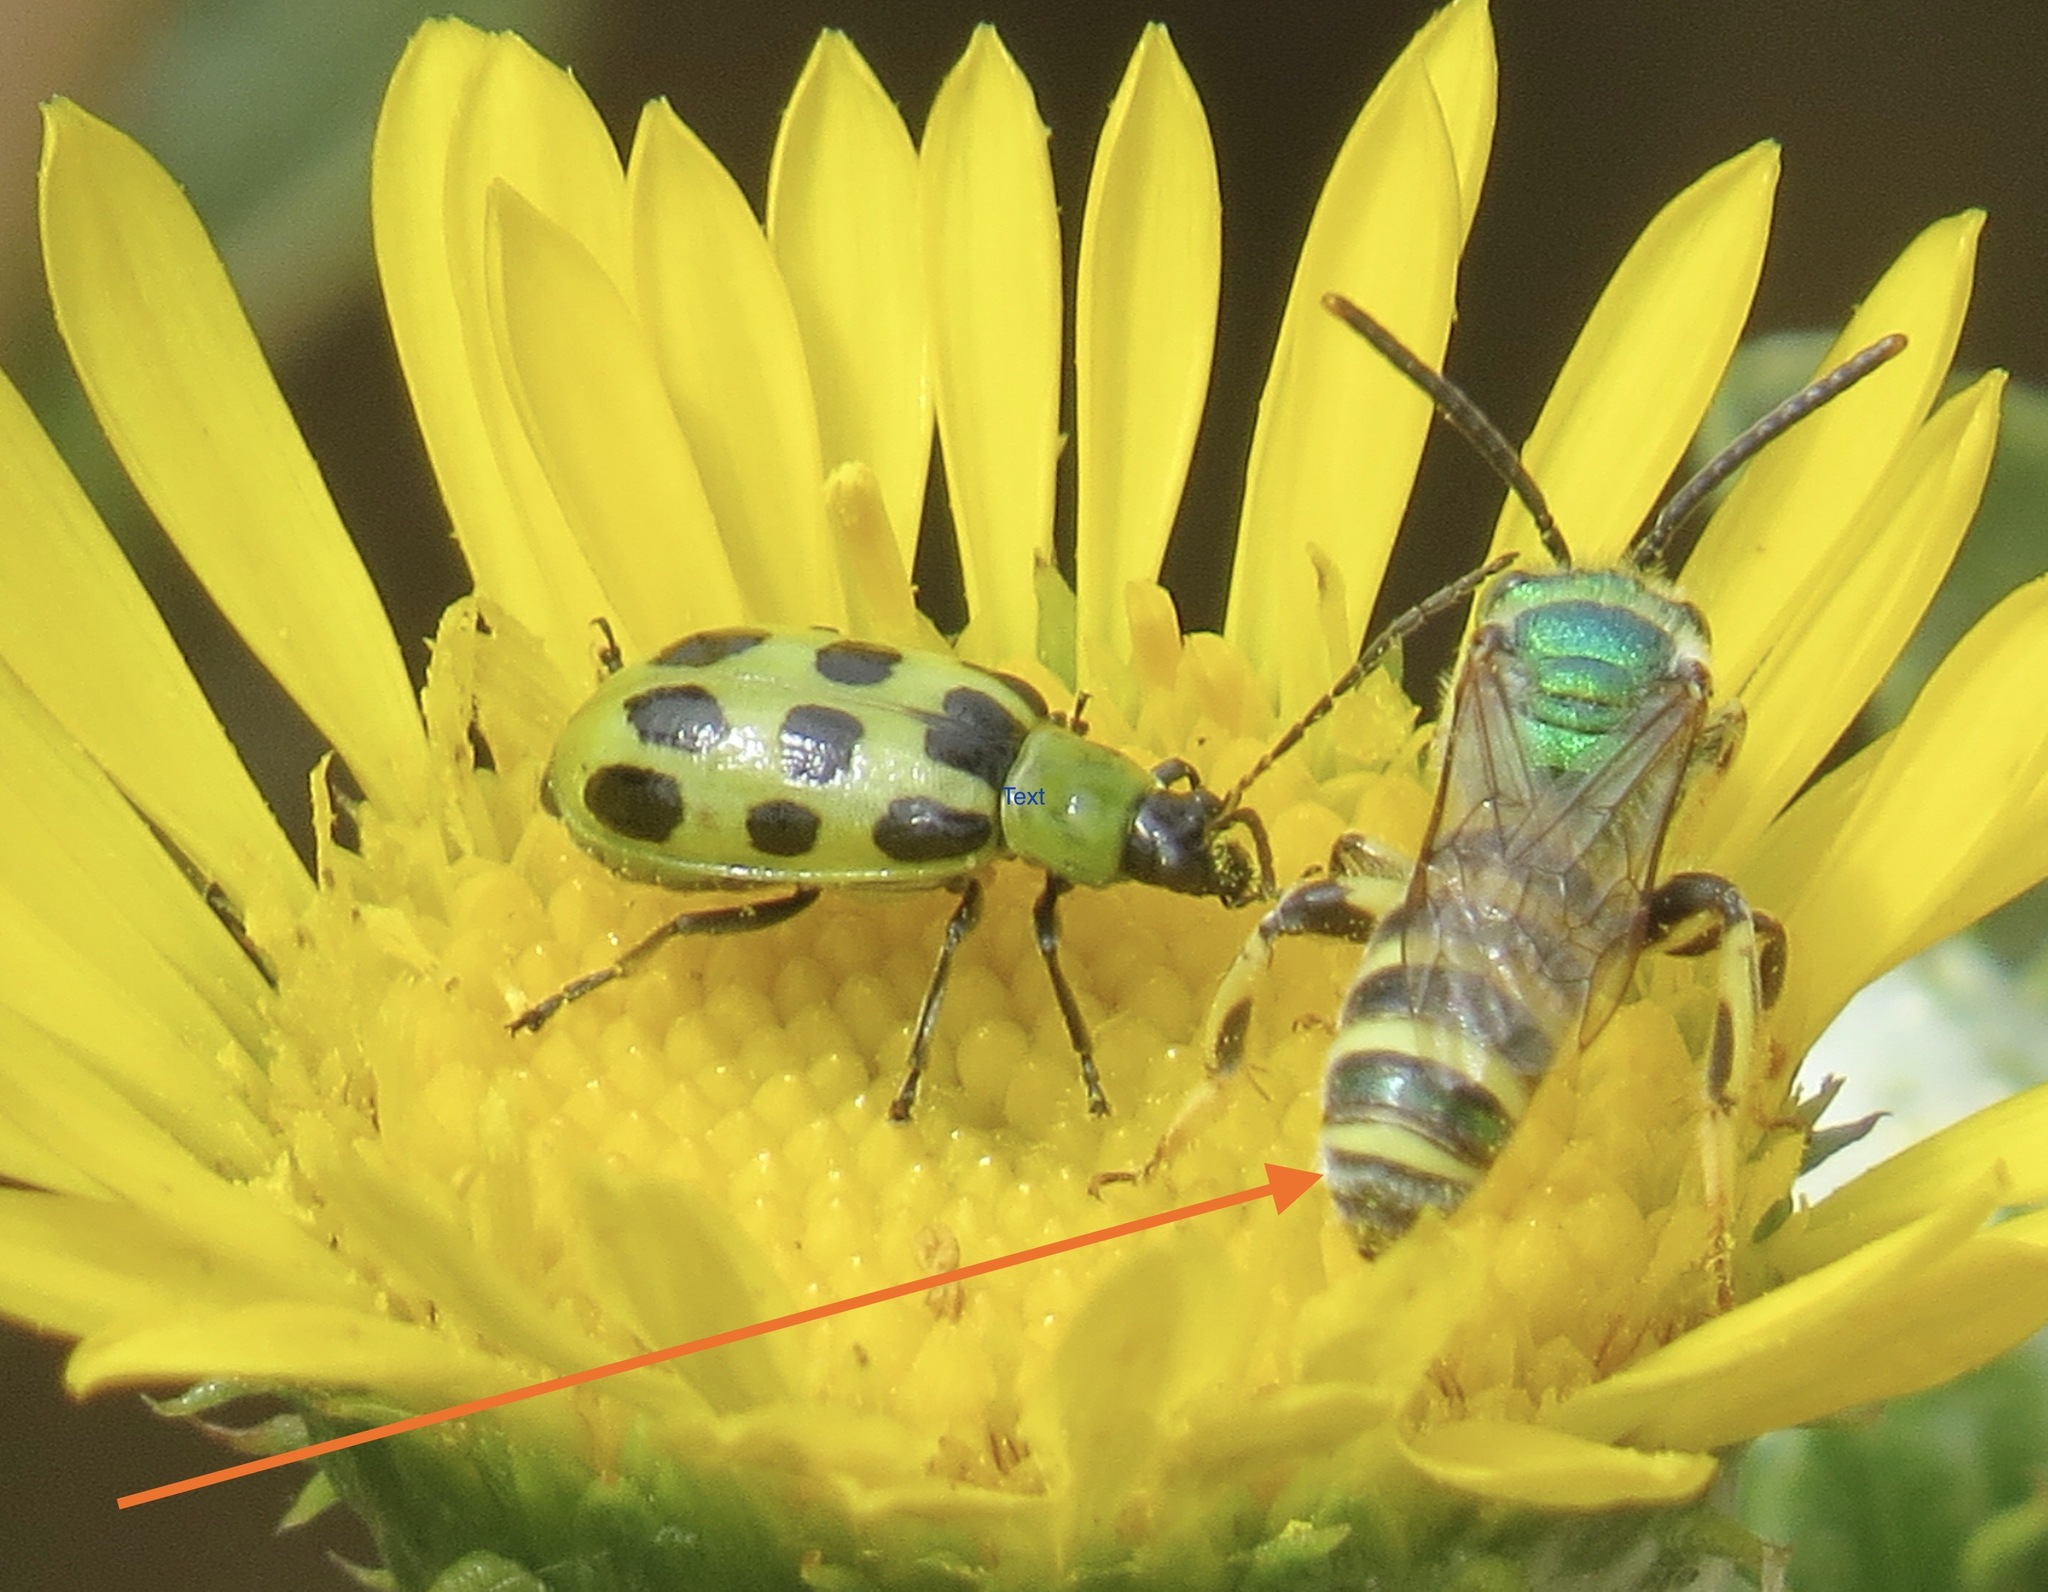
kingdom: Animalia
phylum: Arthropoda
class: Insecta
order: Hymenoptera
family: Halictidae
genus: Agapostemon
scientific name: Agapostemon texanus
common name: Texas striped sweat bee
